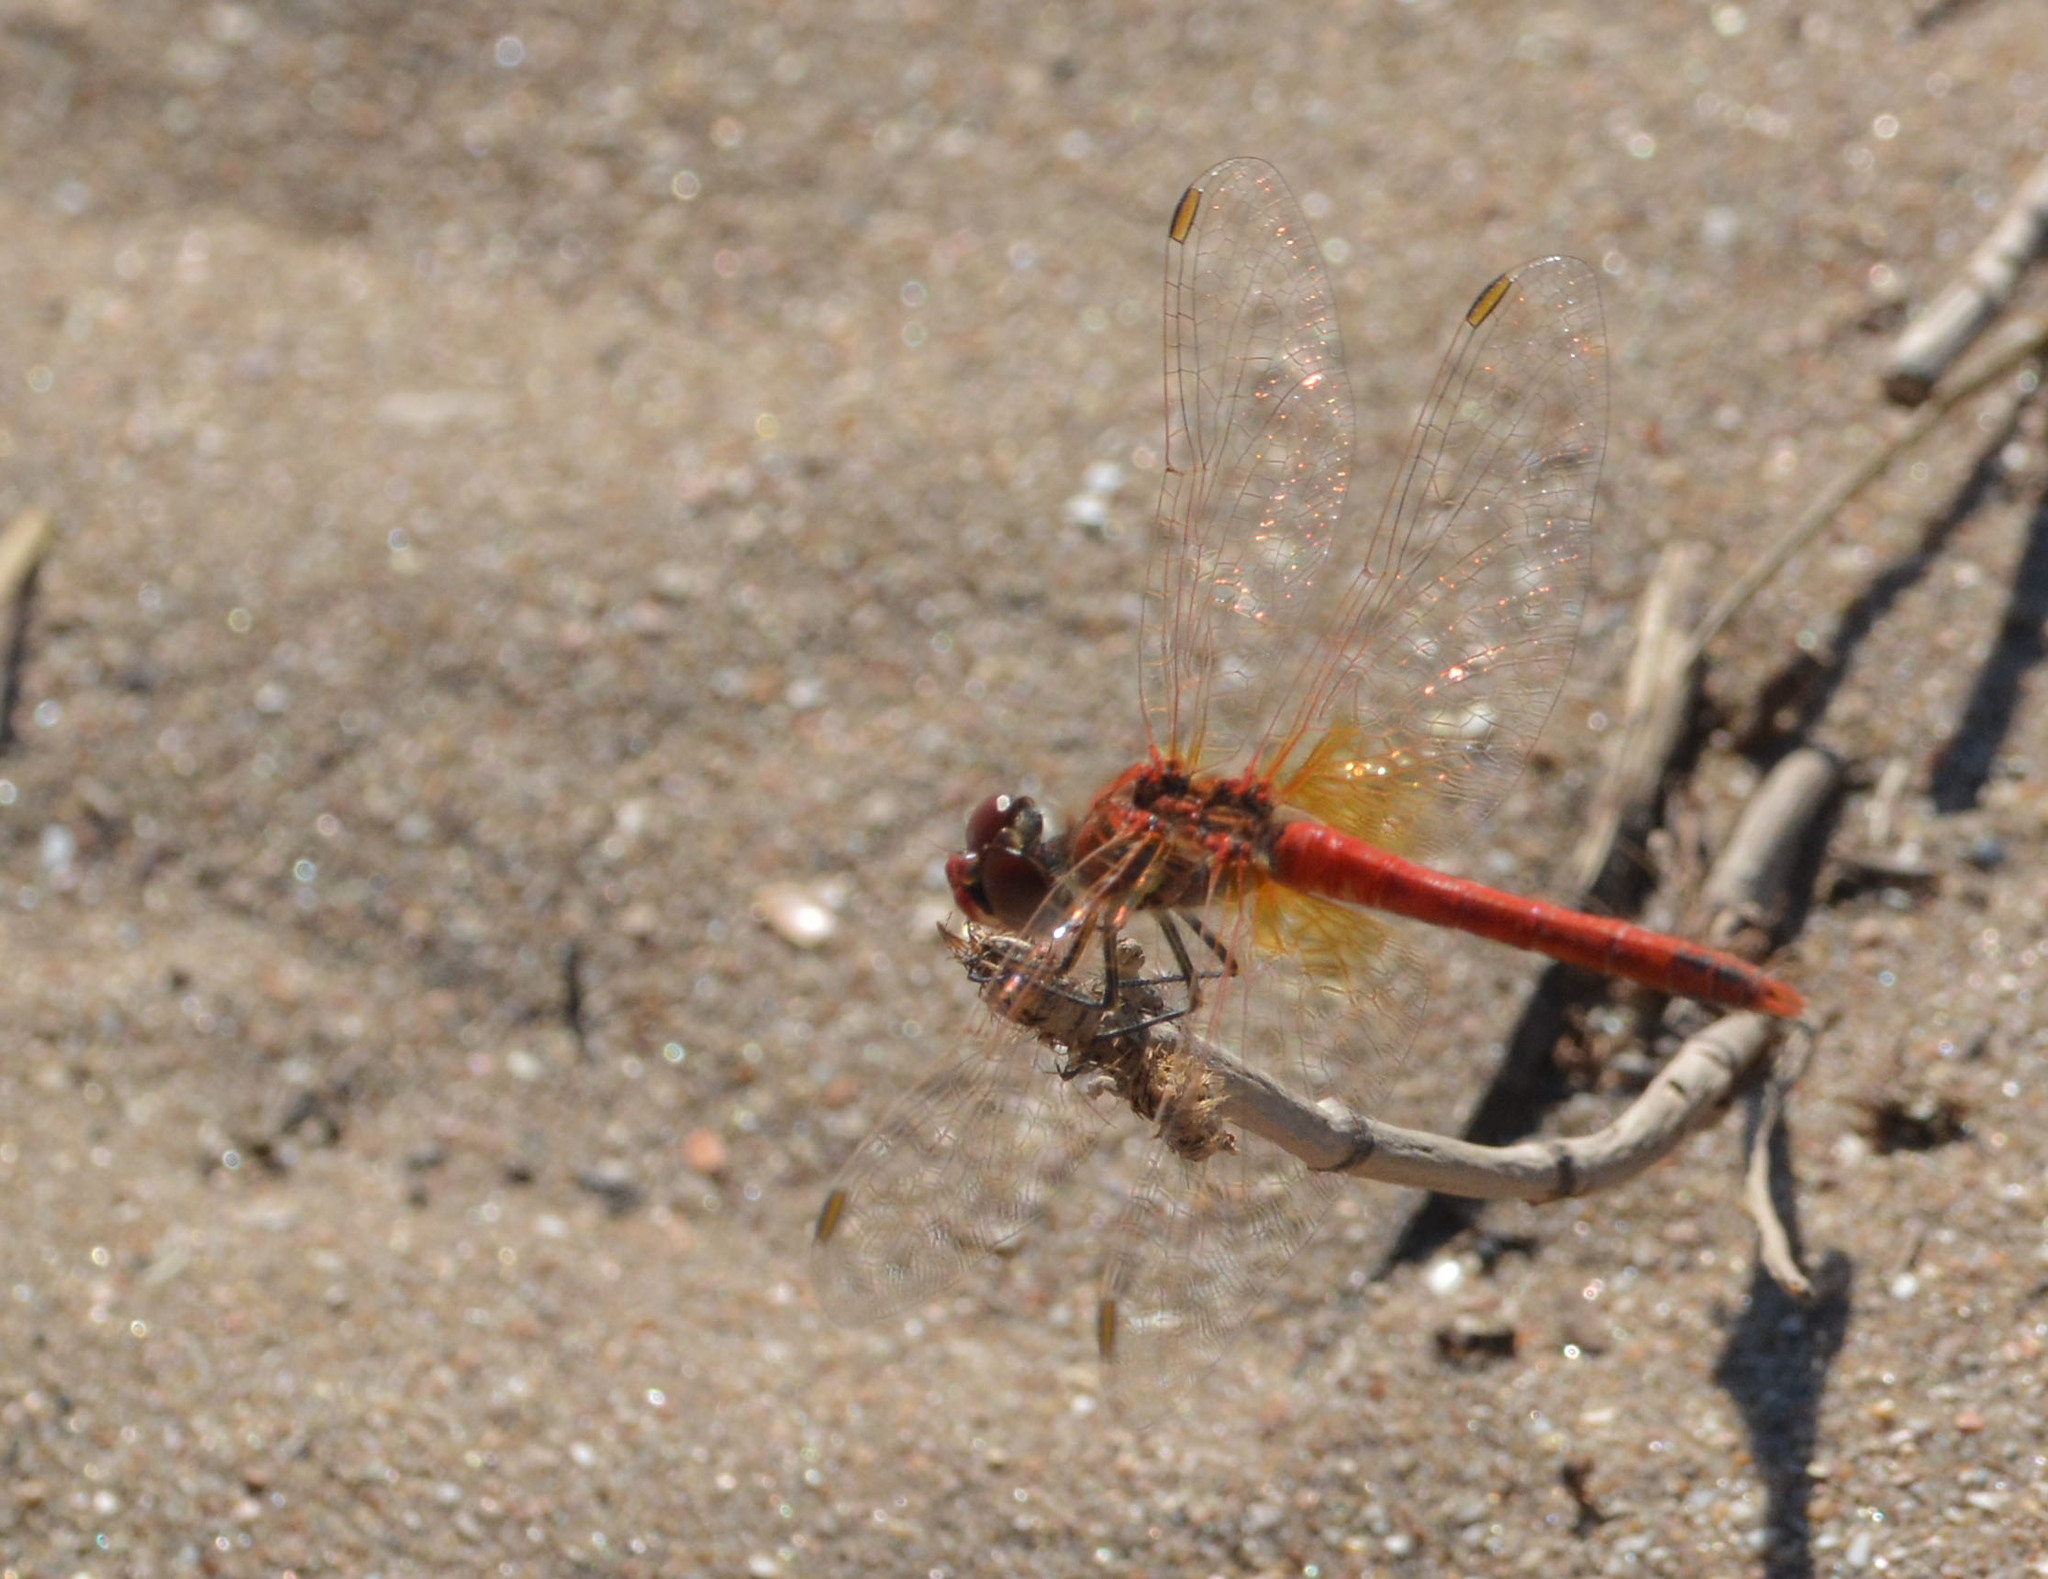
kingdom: Animalia
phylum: Arthropoda
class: Insecta
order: Odonata
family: Libellulidae
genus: Sympetrum
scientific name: Sympetrum fonscolombii
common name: Red-veined darter
